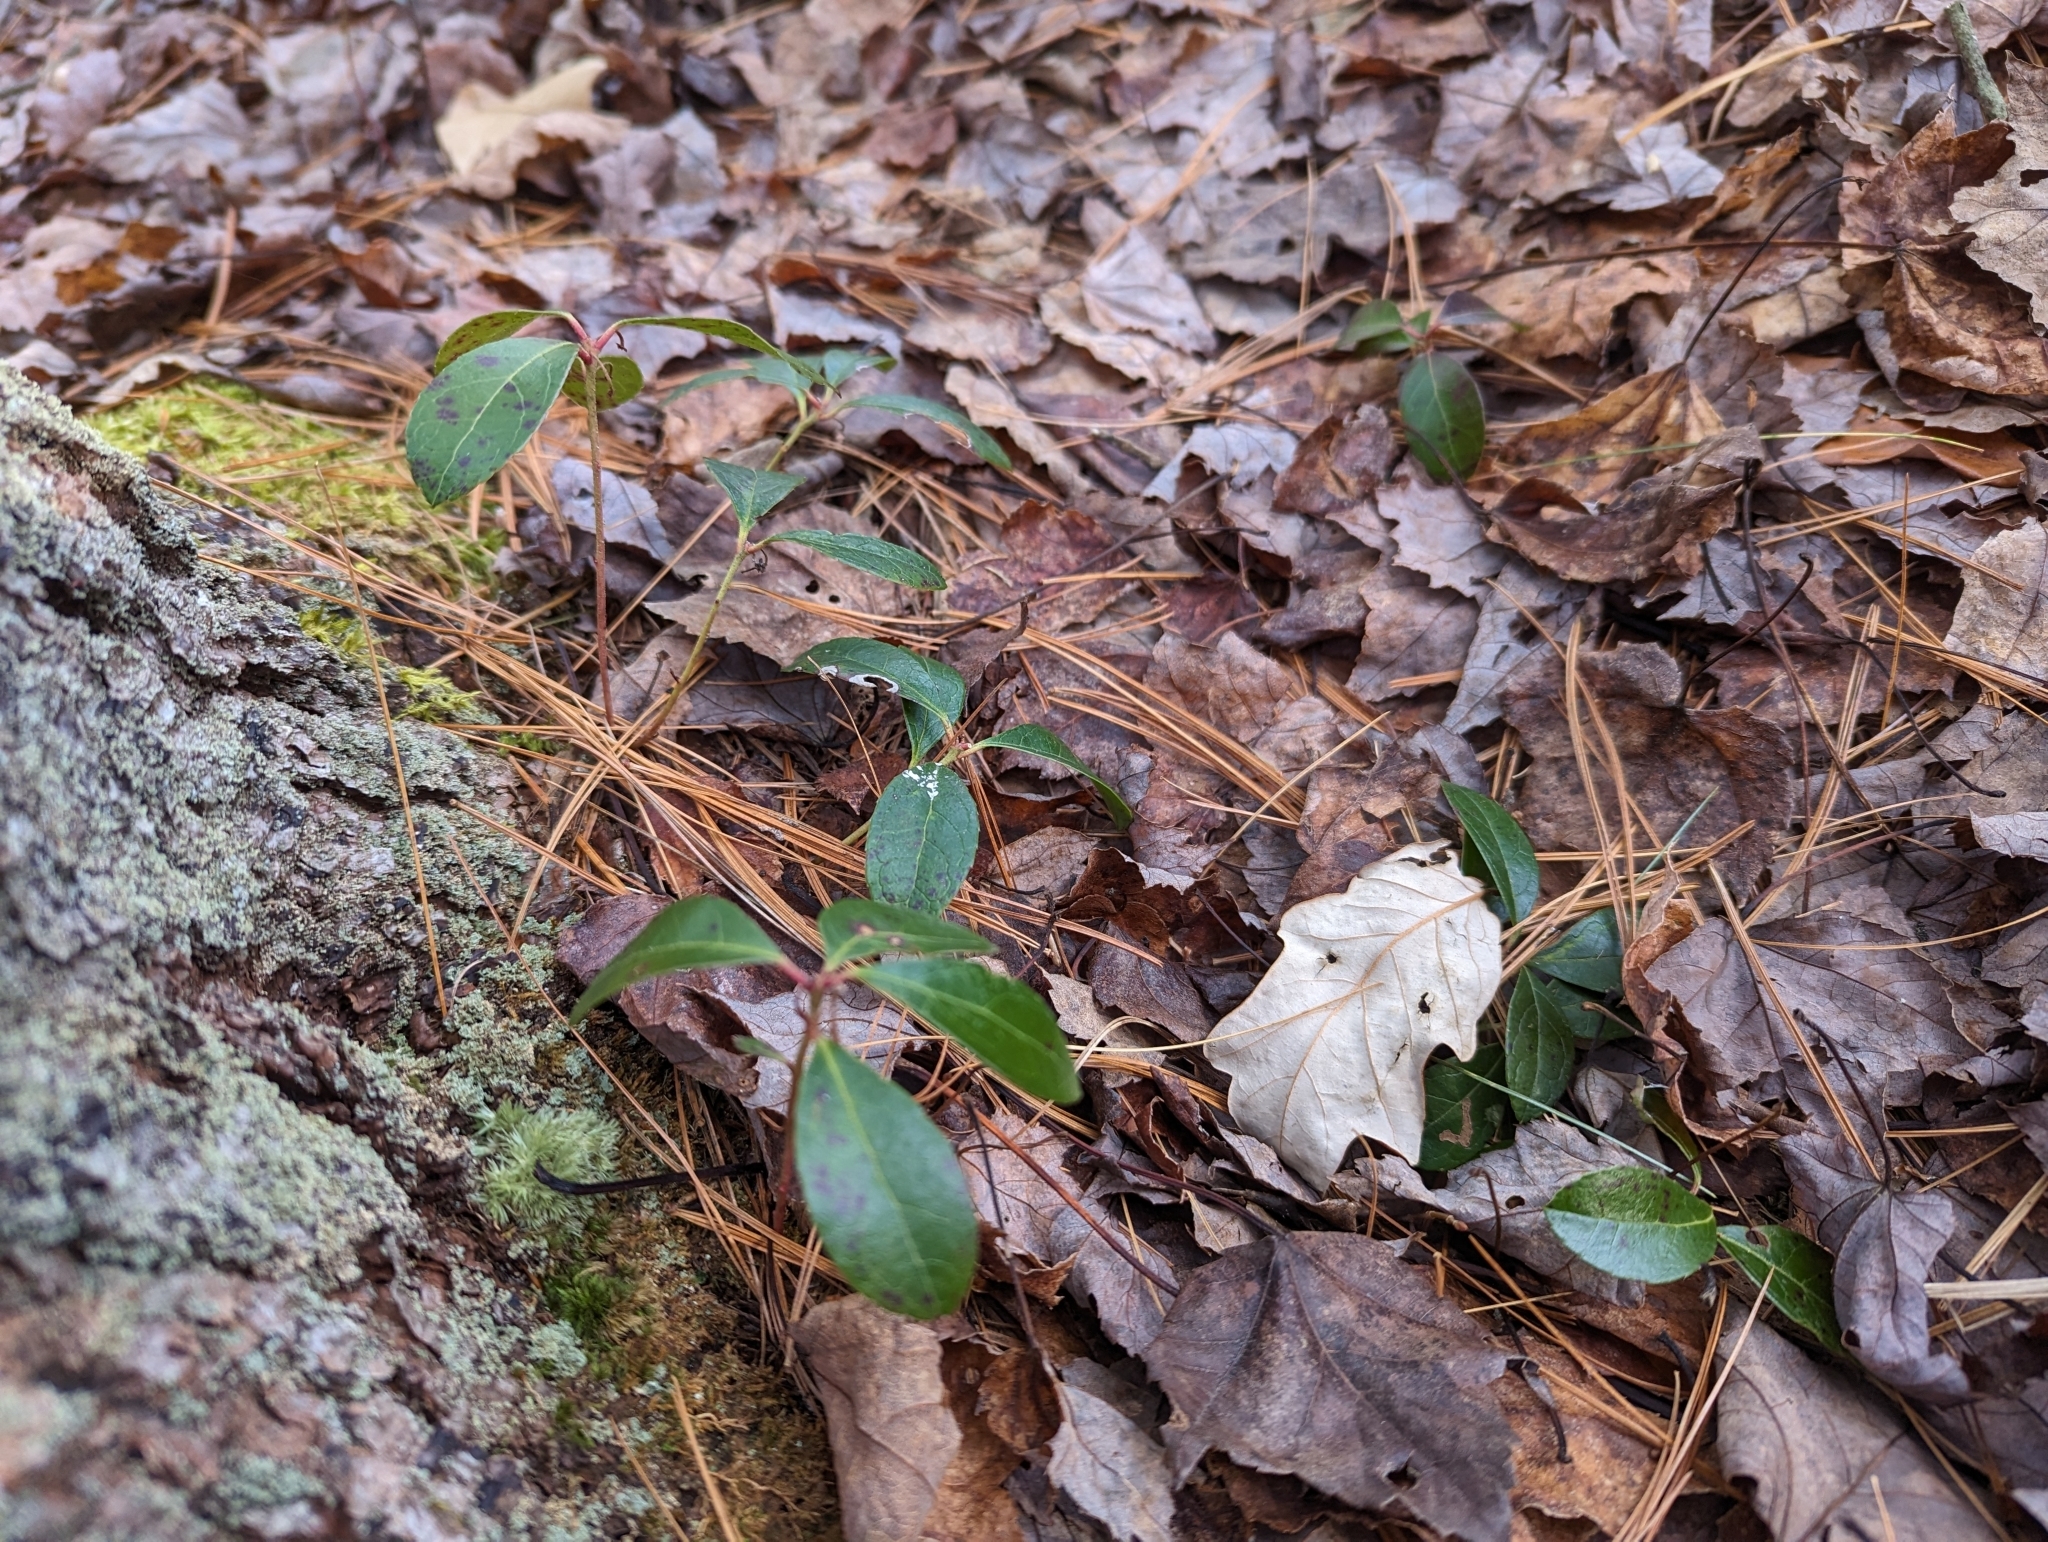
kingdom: Plantae
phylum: Tracheophyta
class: Magnoliopsida
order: Ericales
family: Ericaceae
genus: Gaultheria
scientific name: Gaultheria procumbens
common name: Checkerberry
